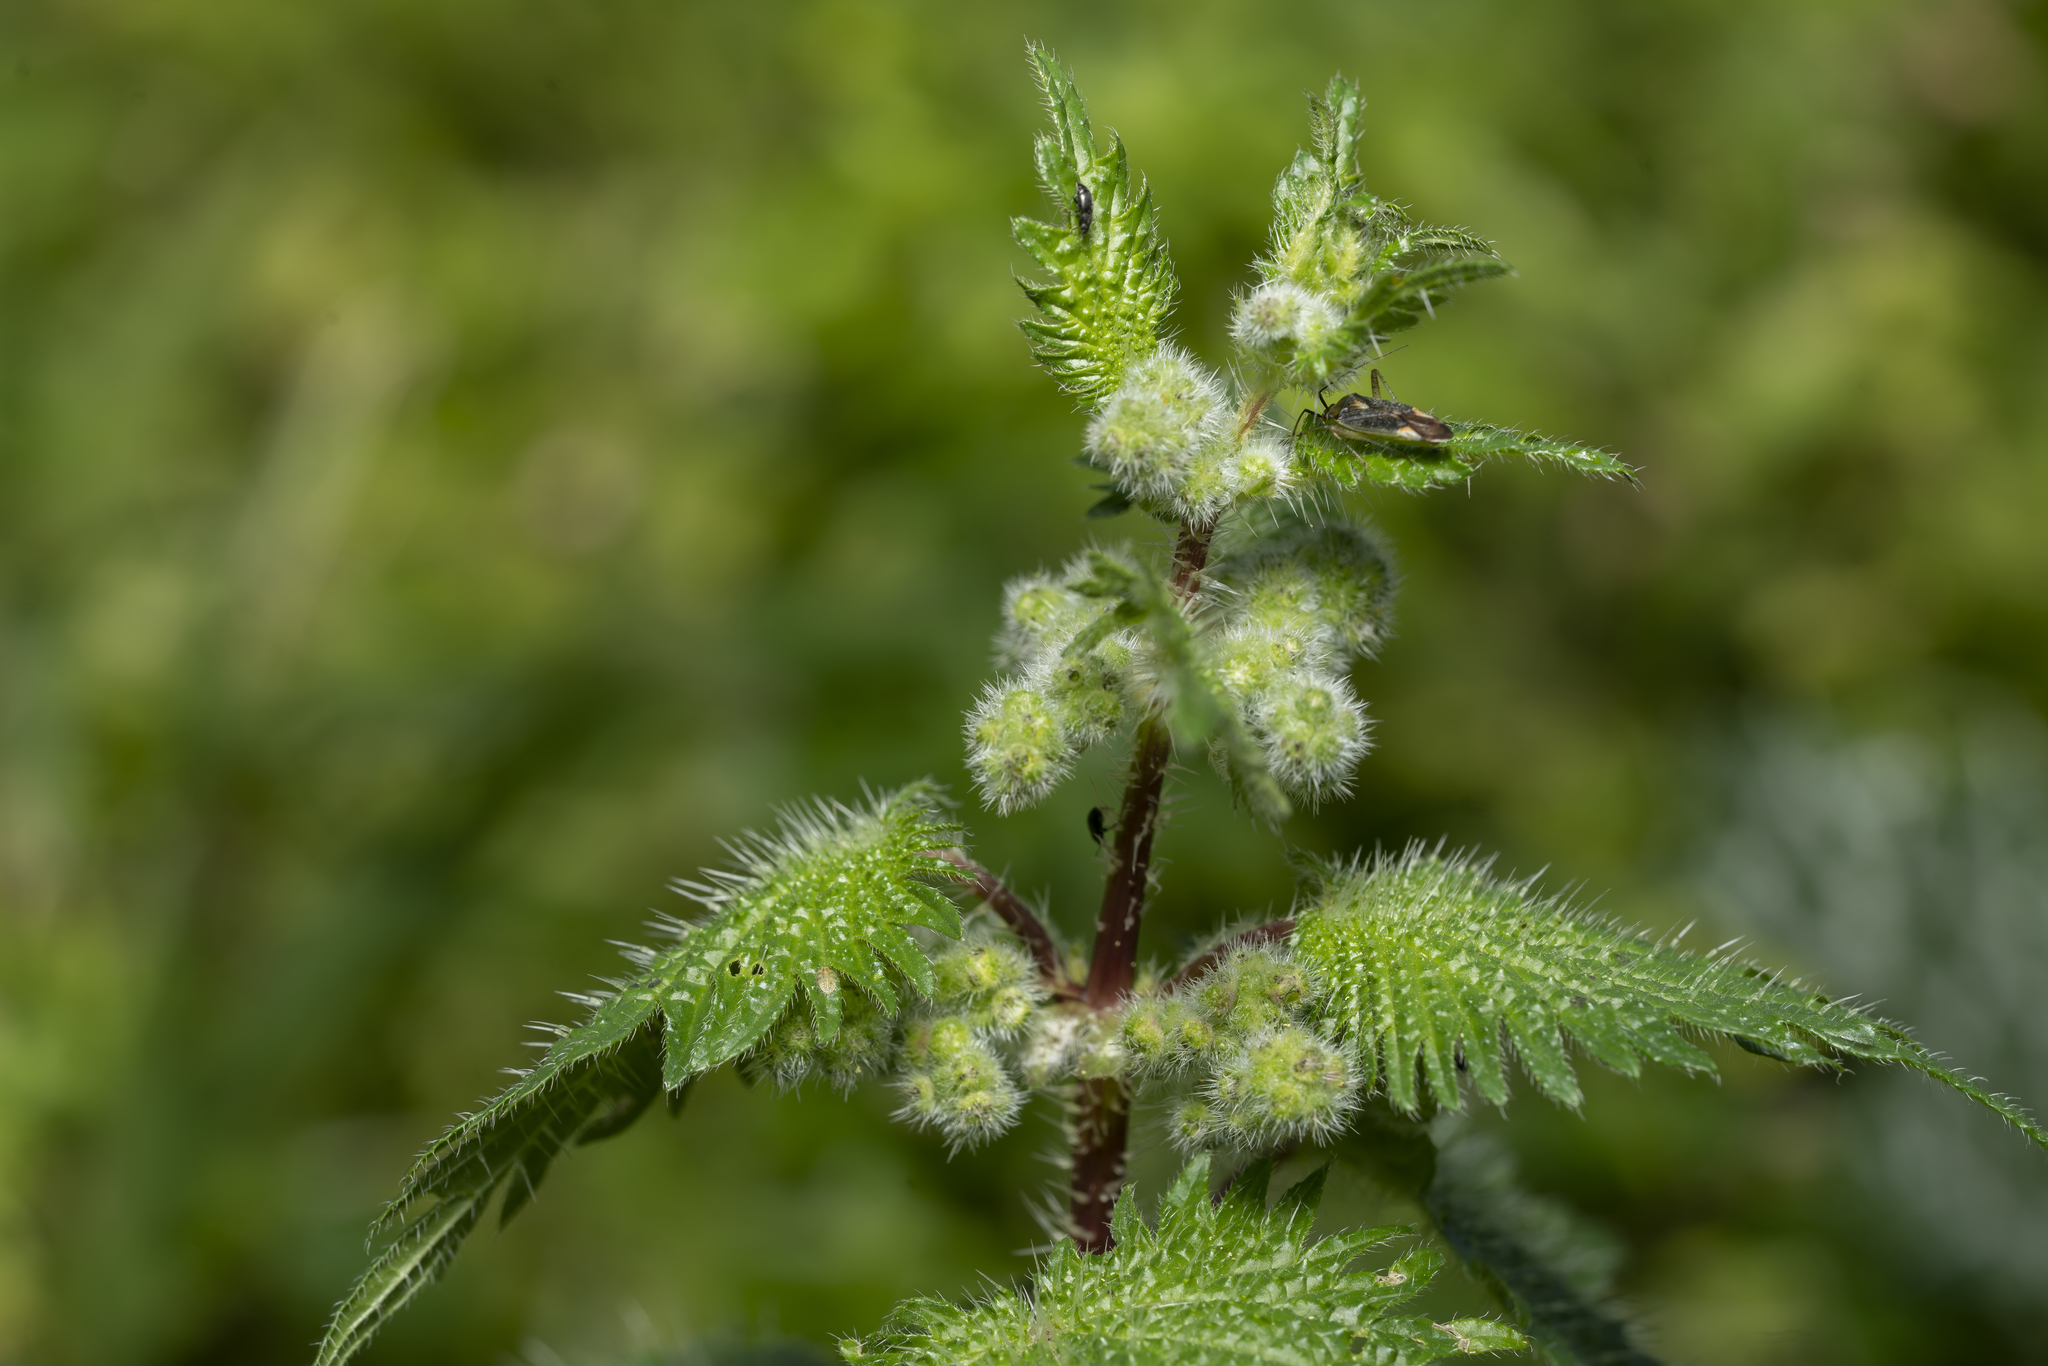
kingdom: Plantae
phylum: Tracheophyta
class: Magnoliopsida
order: Rosales
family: Urticaceae
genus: Urtica
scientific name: Urtica pilulifera
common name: Roman nettle
